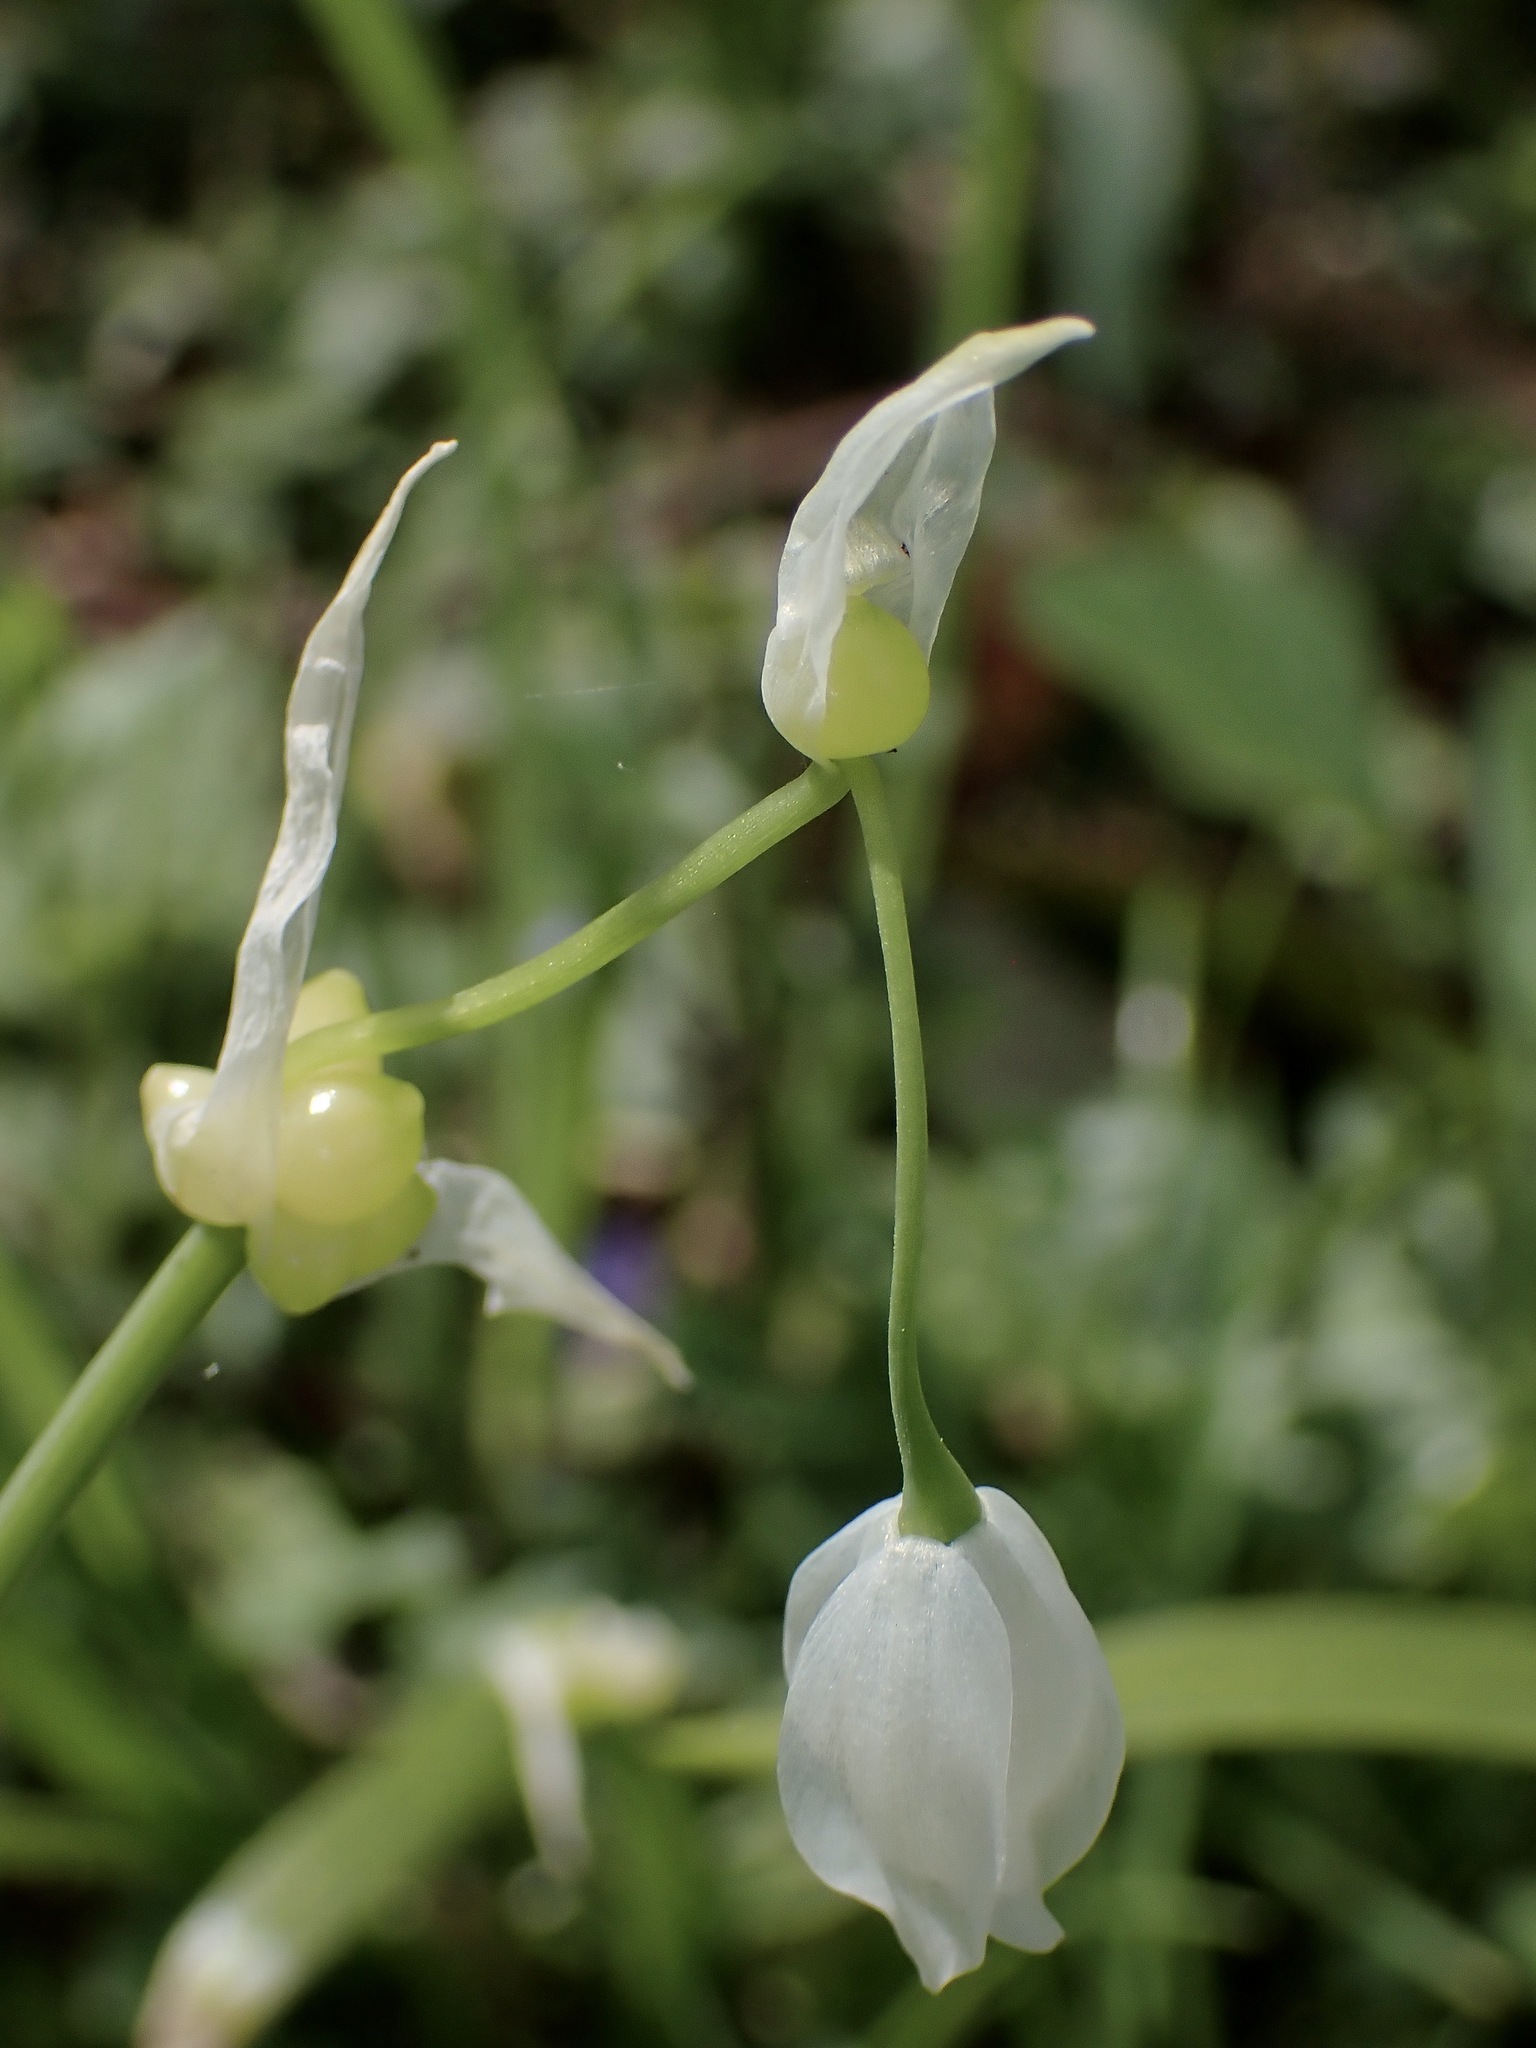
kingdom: Plantae
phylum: Tracheophyta
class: Liliopsida
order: Asparagales
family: Amaryllidaceae
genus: Allium
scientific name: Allium paradoxum
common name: Few-flowered garlic
